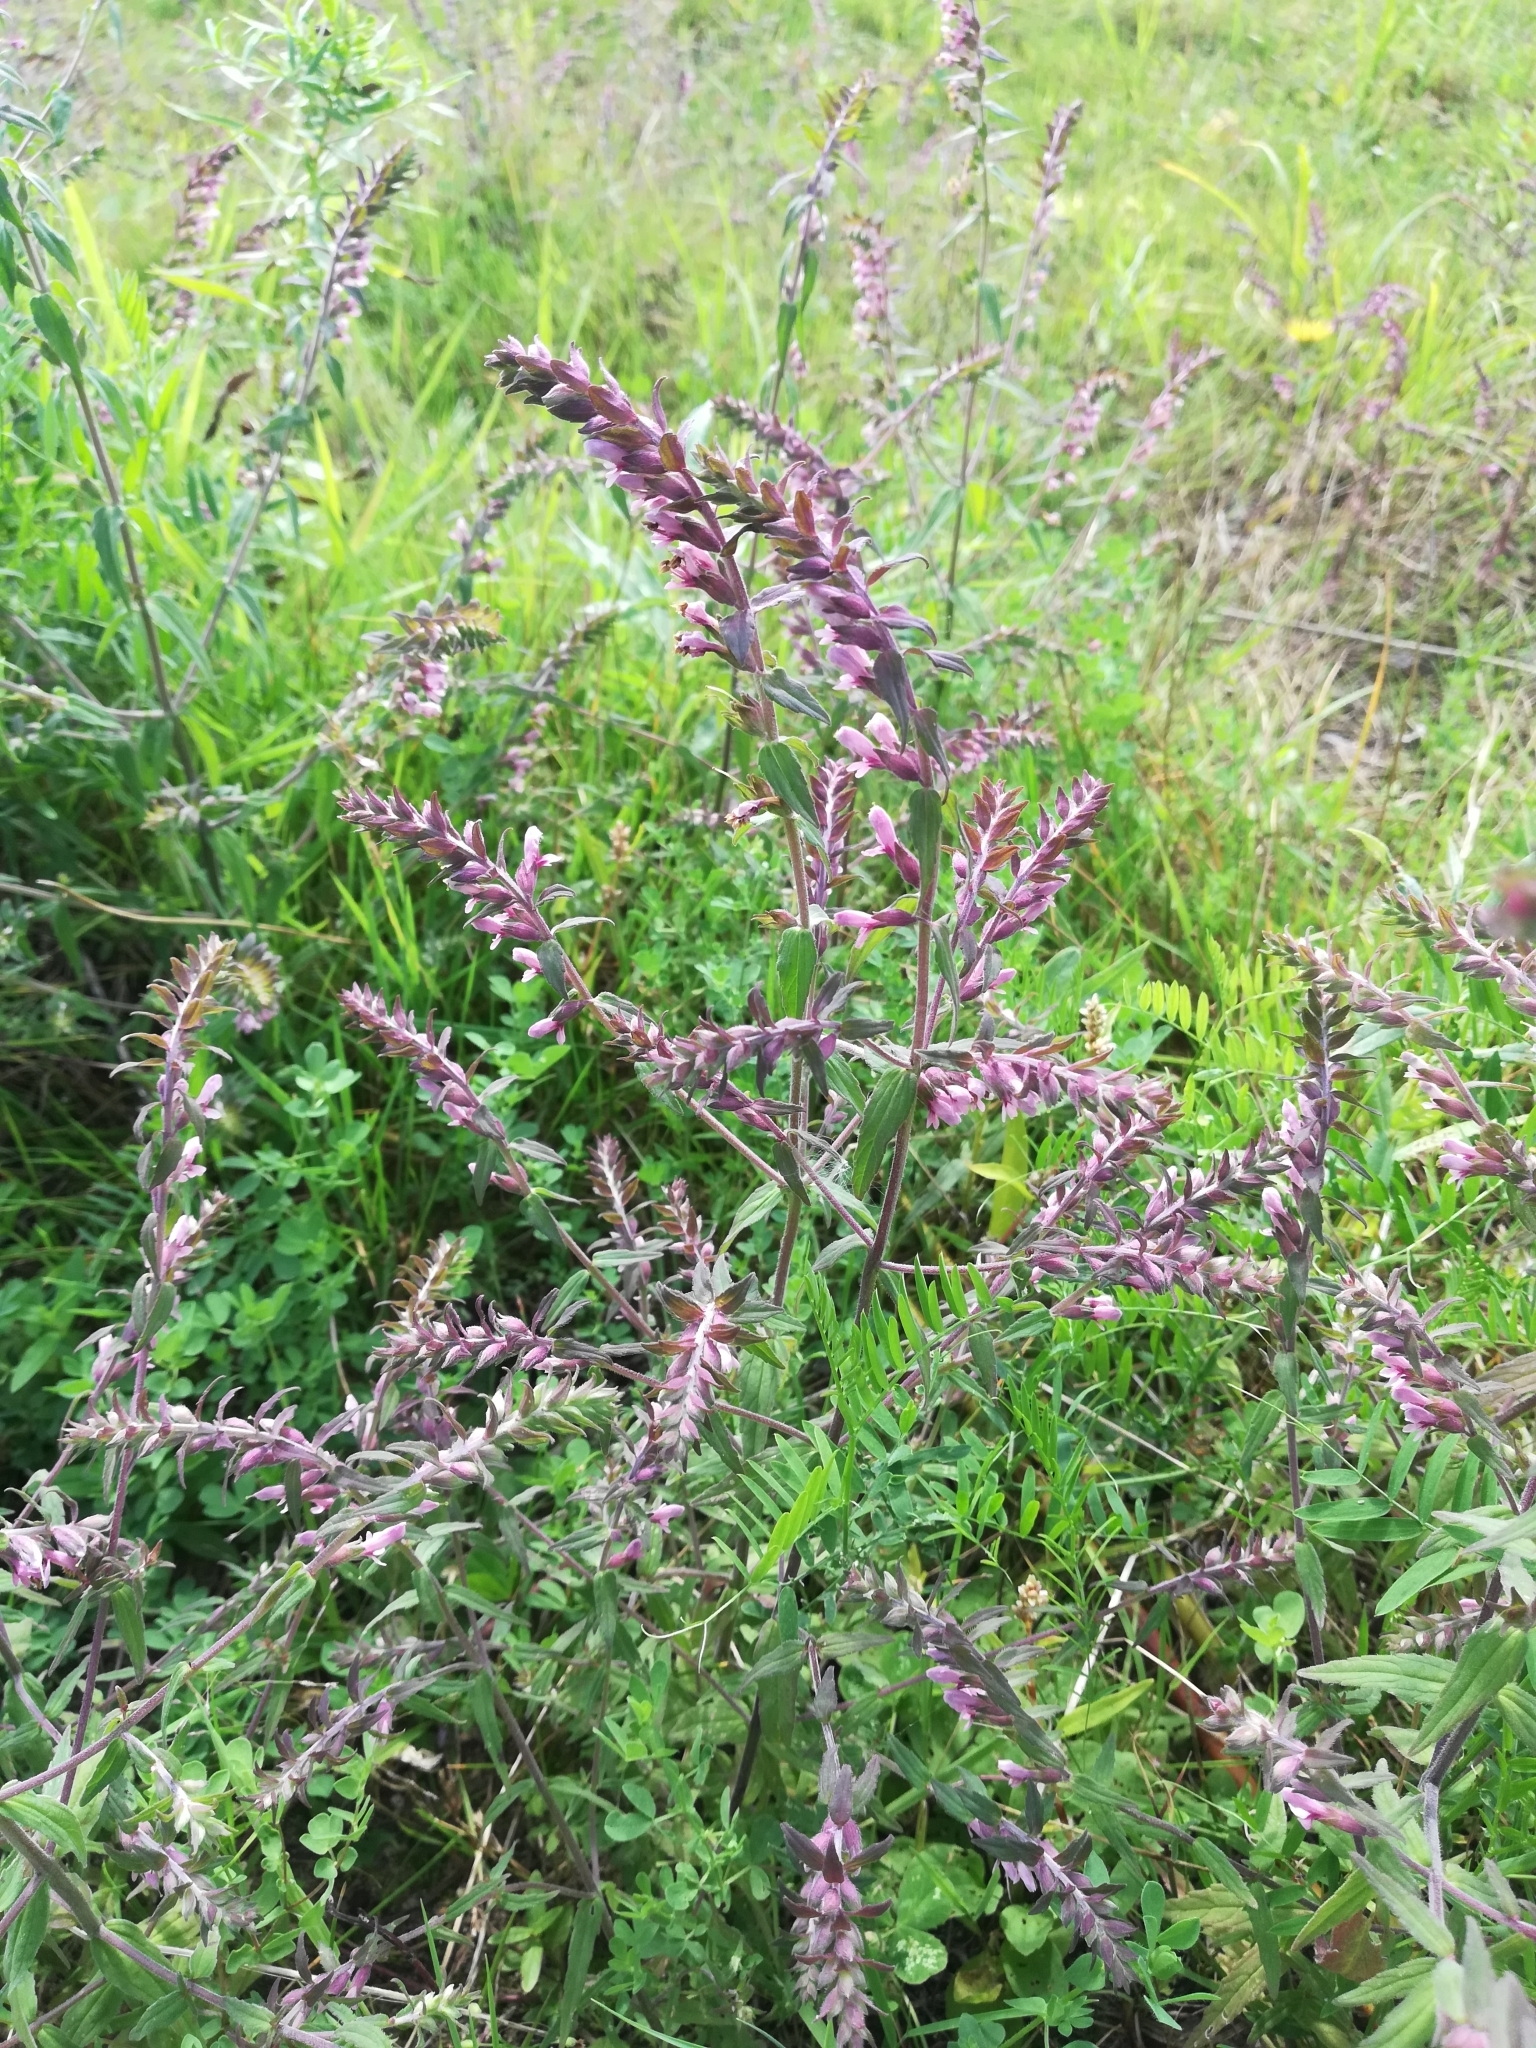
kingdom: Plantae
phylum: Tracheophyta
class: Magnoliopsida
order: Lamiales
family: Orobanchaceae
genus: Odontites
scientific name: Odontites vulgaris
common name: Broomrape
